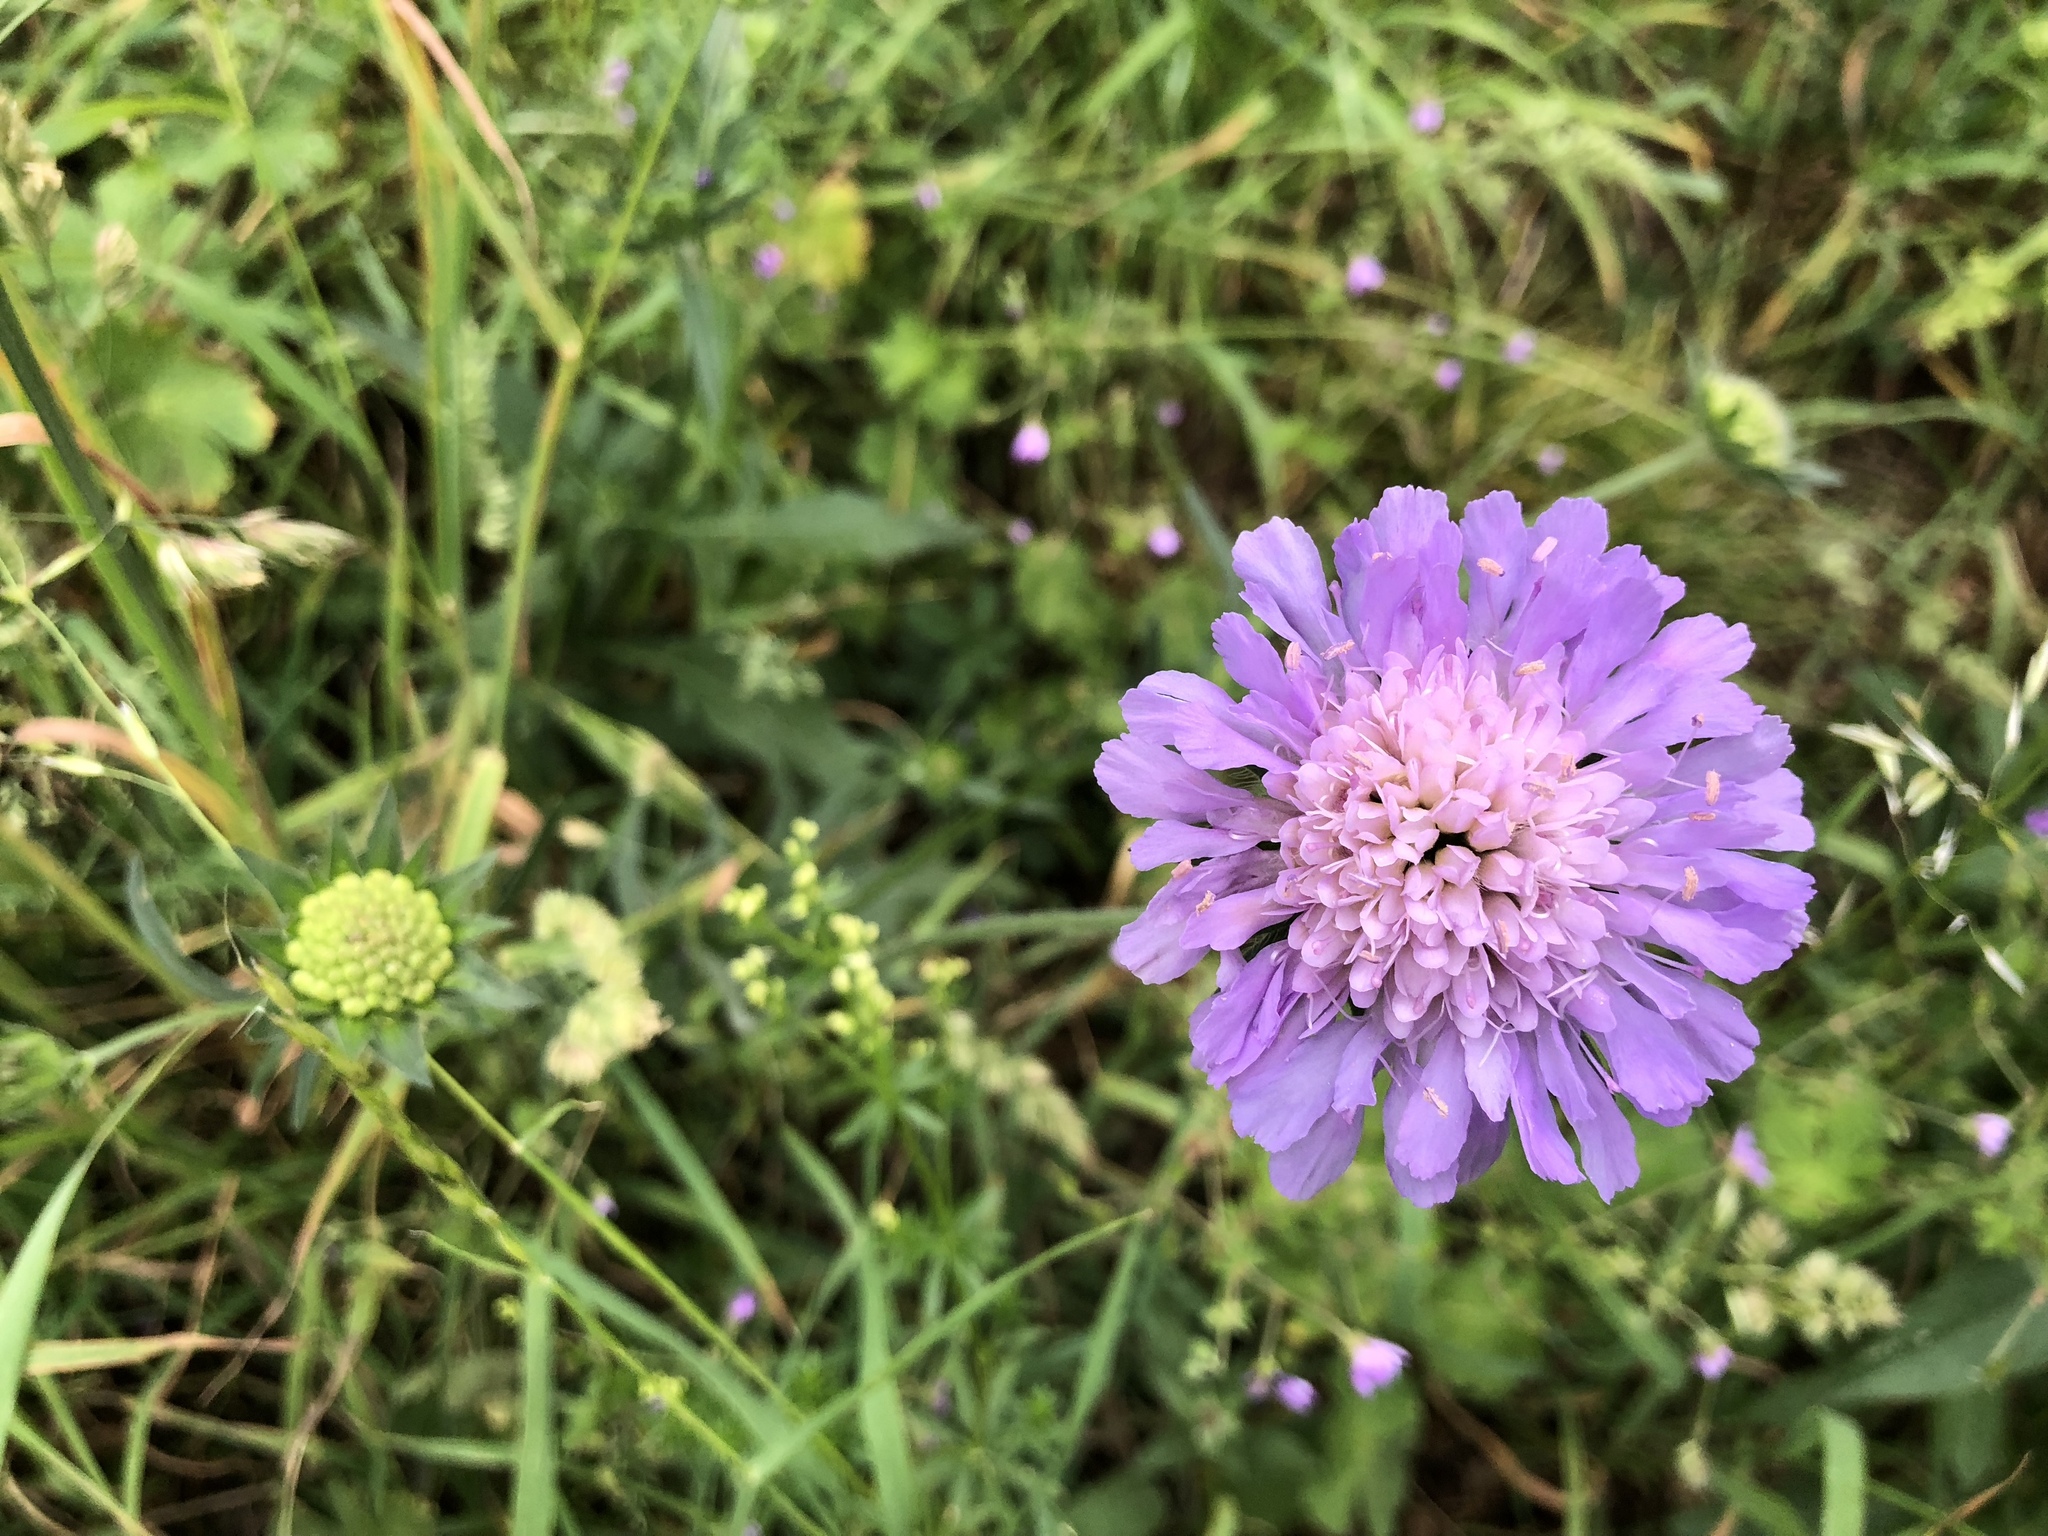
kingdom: Plantae
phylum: Tracheophyta
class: Magnoliopsida
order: Dipsacales
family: Caprifoliaceae
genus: Knautia
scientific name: Knautia arvensis
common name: Field scabiosa
